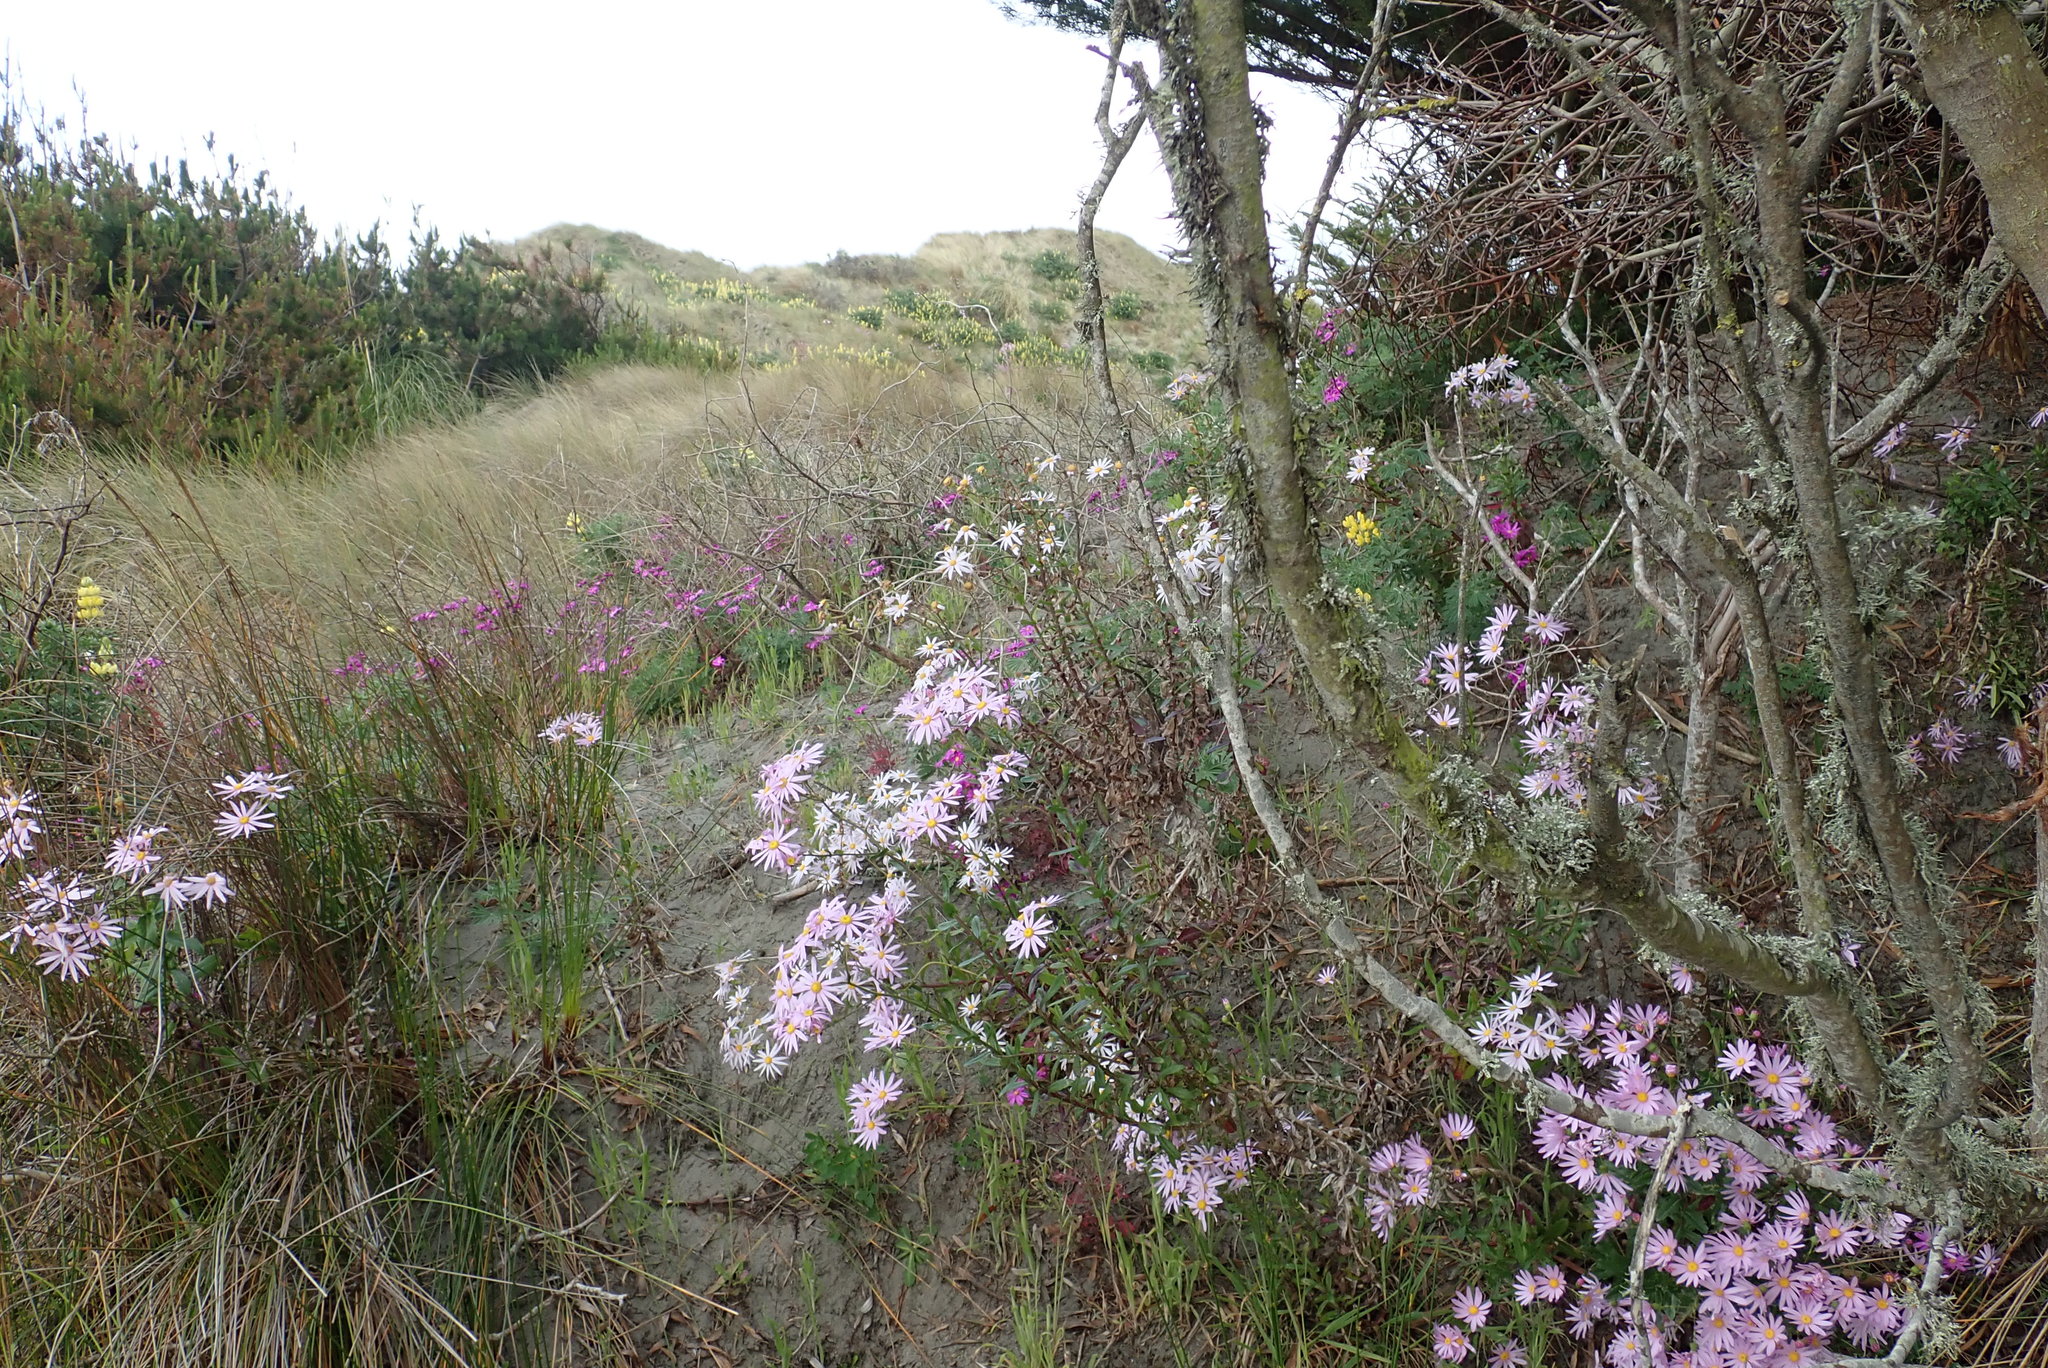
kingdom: Plantae
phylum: Tracheophyta
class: Magnoliopsida
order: Asterales
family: Asteraceae
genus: Senecio
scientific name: Senecio glastifolius
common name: Woad-leaved ragwort
